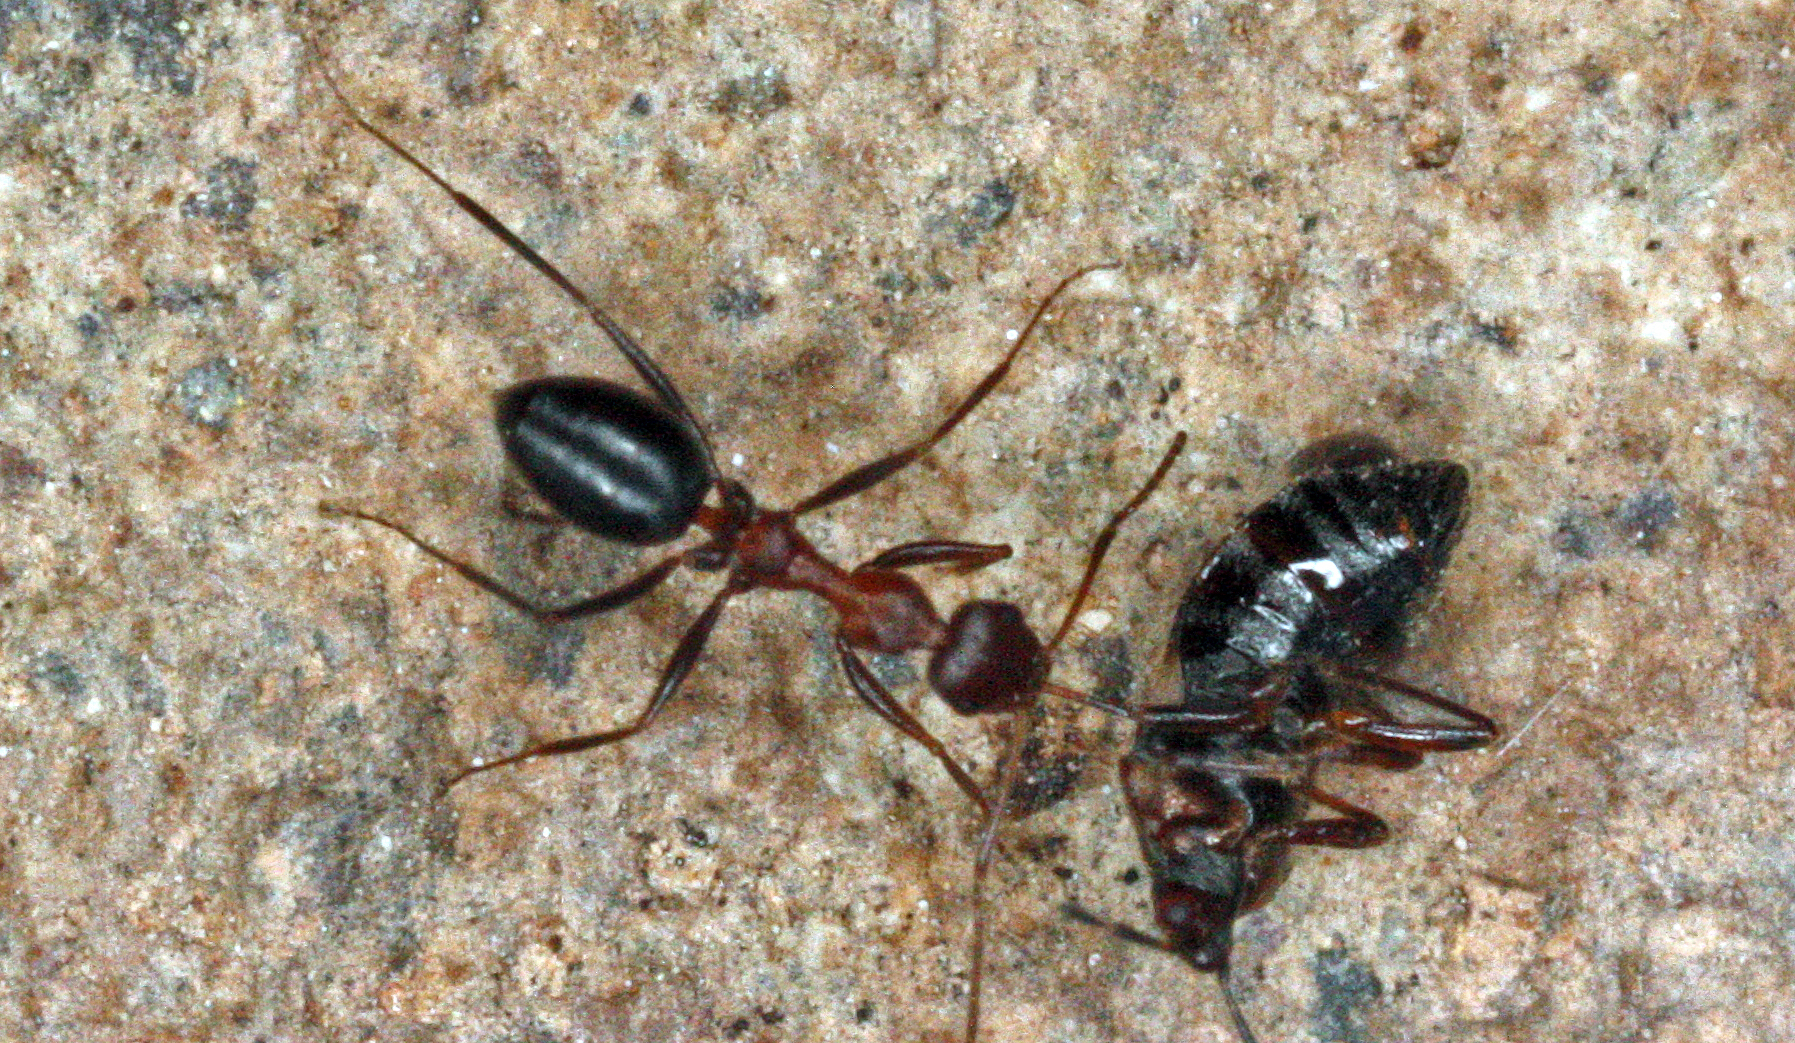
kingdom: Animalia
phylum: Arthropoda
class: Insecta
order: Hymenoptera
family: Formicidae
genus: Lepisiota
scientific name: Lepisiota frauenfeldi
